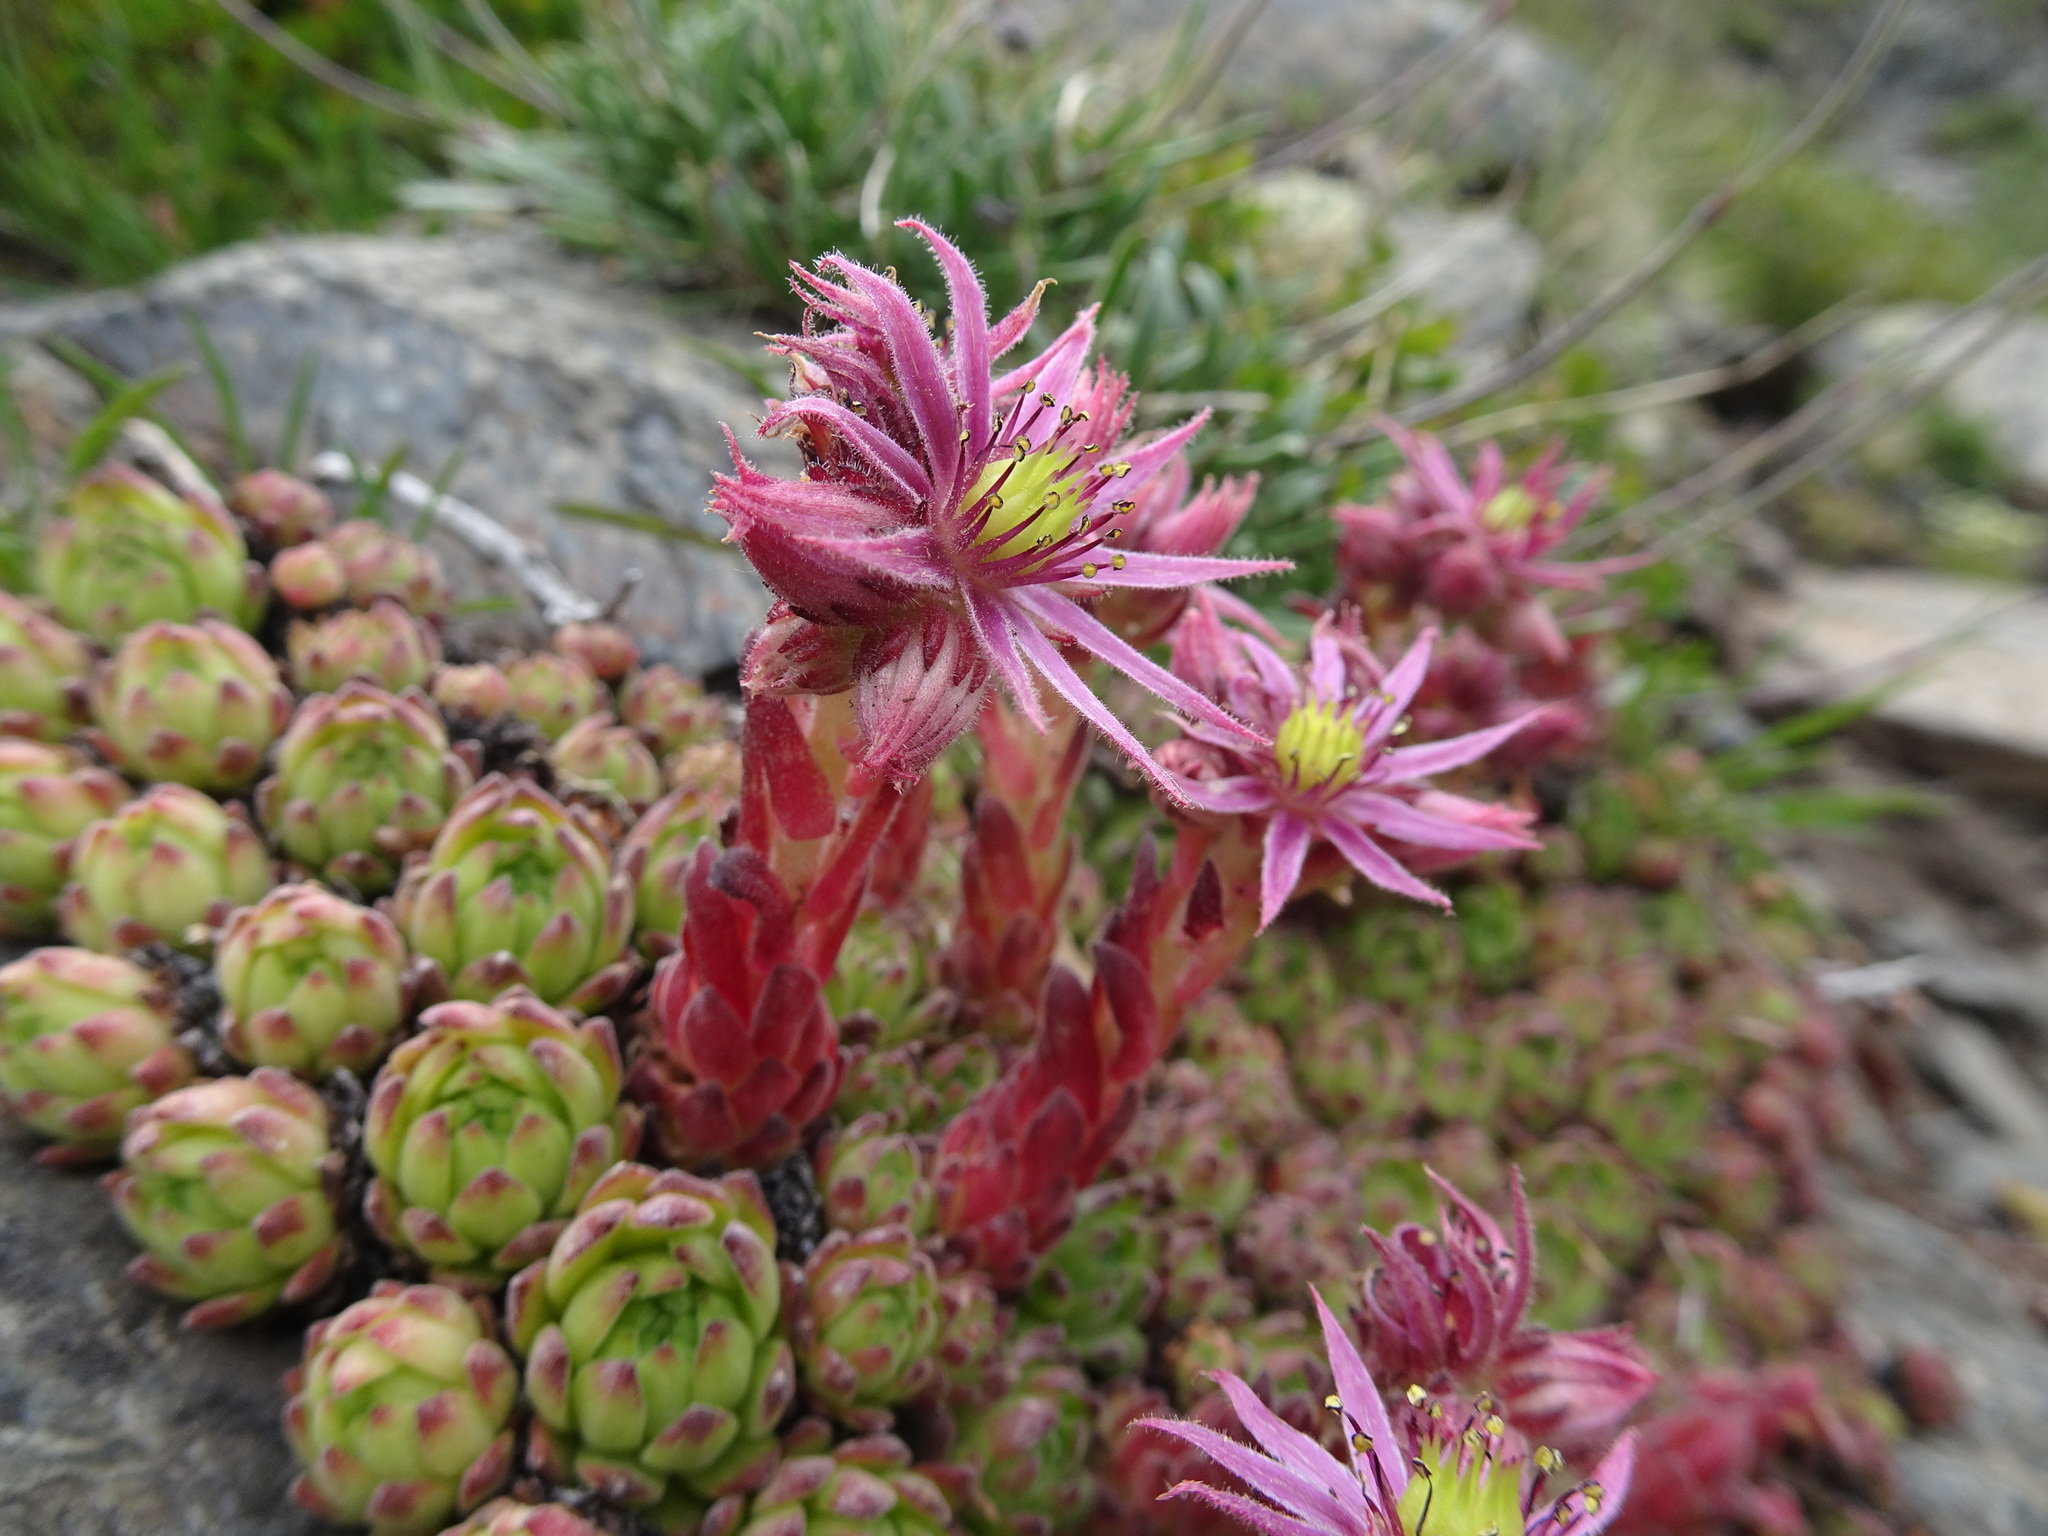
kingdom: Plantae
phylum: Tracheophyta
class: Magnoliopsida
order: Saxifragales
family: Crassulaceae
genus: Sempervivum
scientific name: Sempervivum montanum
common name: Mountain house-leek
